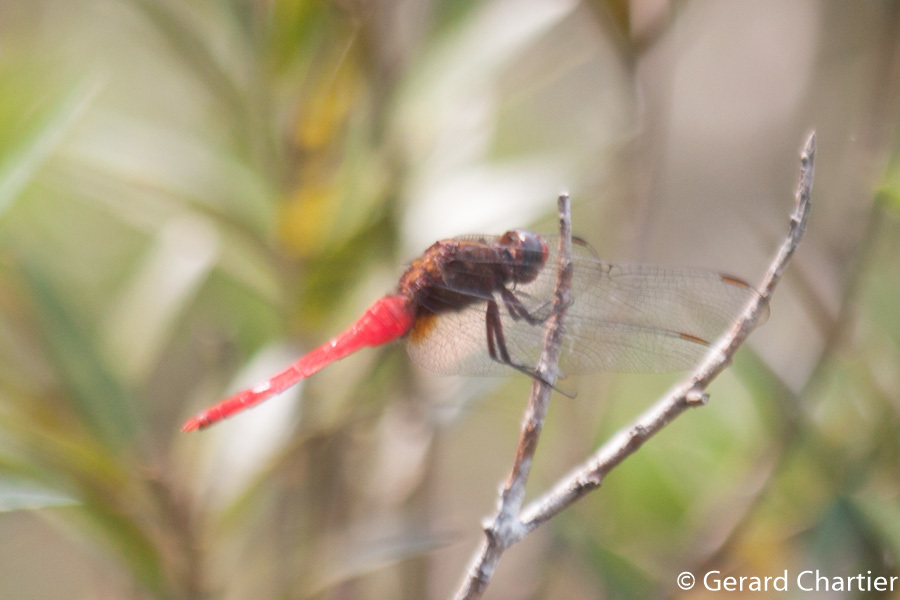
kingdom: Animalia
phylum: Arthropoda
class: Insecta
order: Odonata
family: Libellulidae
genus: Orthetrum
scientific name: Orthetrum chrysis
